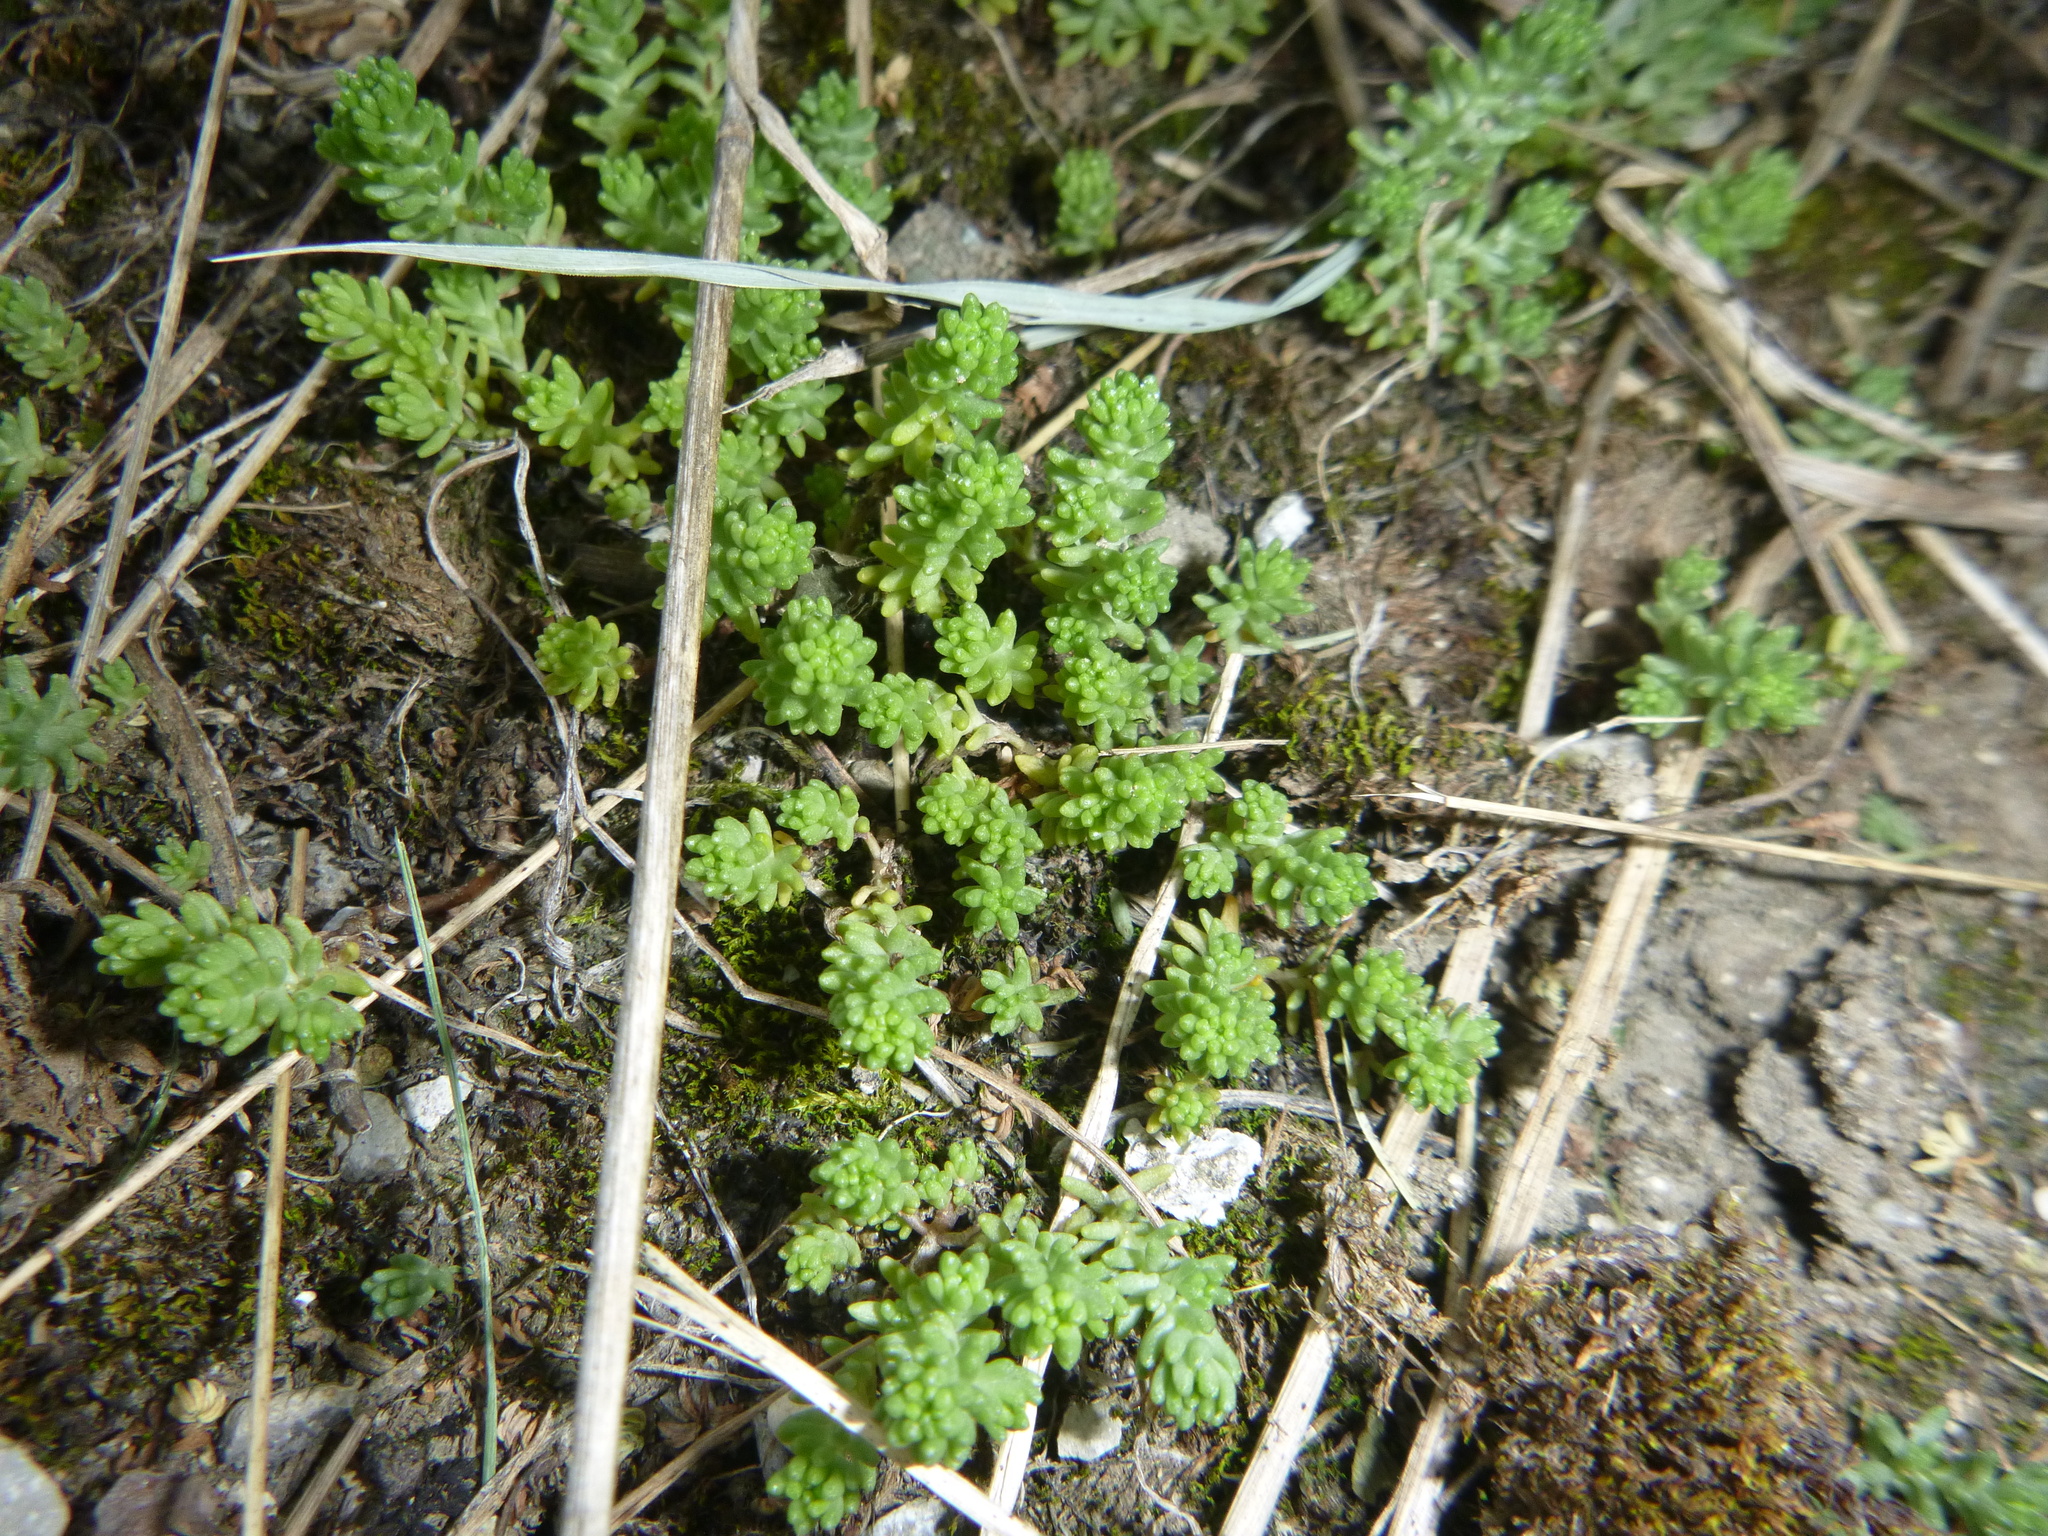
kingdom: Plantae
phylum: Tracheophyta
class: Magnoliopsida
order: Saxifragales
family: Crassulaceae
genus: Sedum
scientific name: Sedum sexangulare
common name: Tasteless stonecrop
